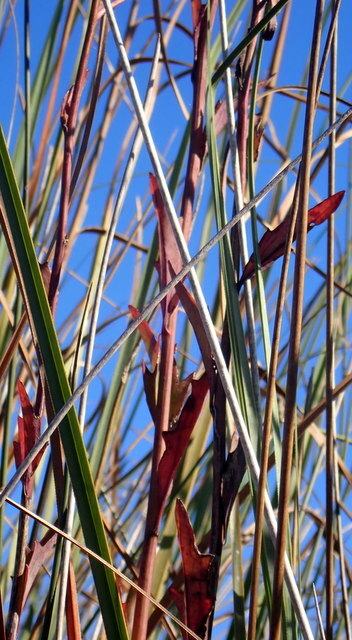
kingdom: Plantae
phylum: Tracheophyta
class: Magnoliopsida
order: Asterales
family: Asteraceae
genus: Arnoglossum
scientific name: Arnoglossum ovatum
